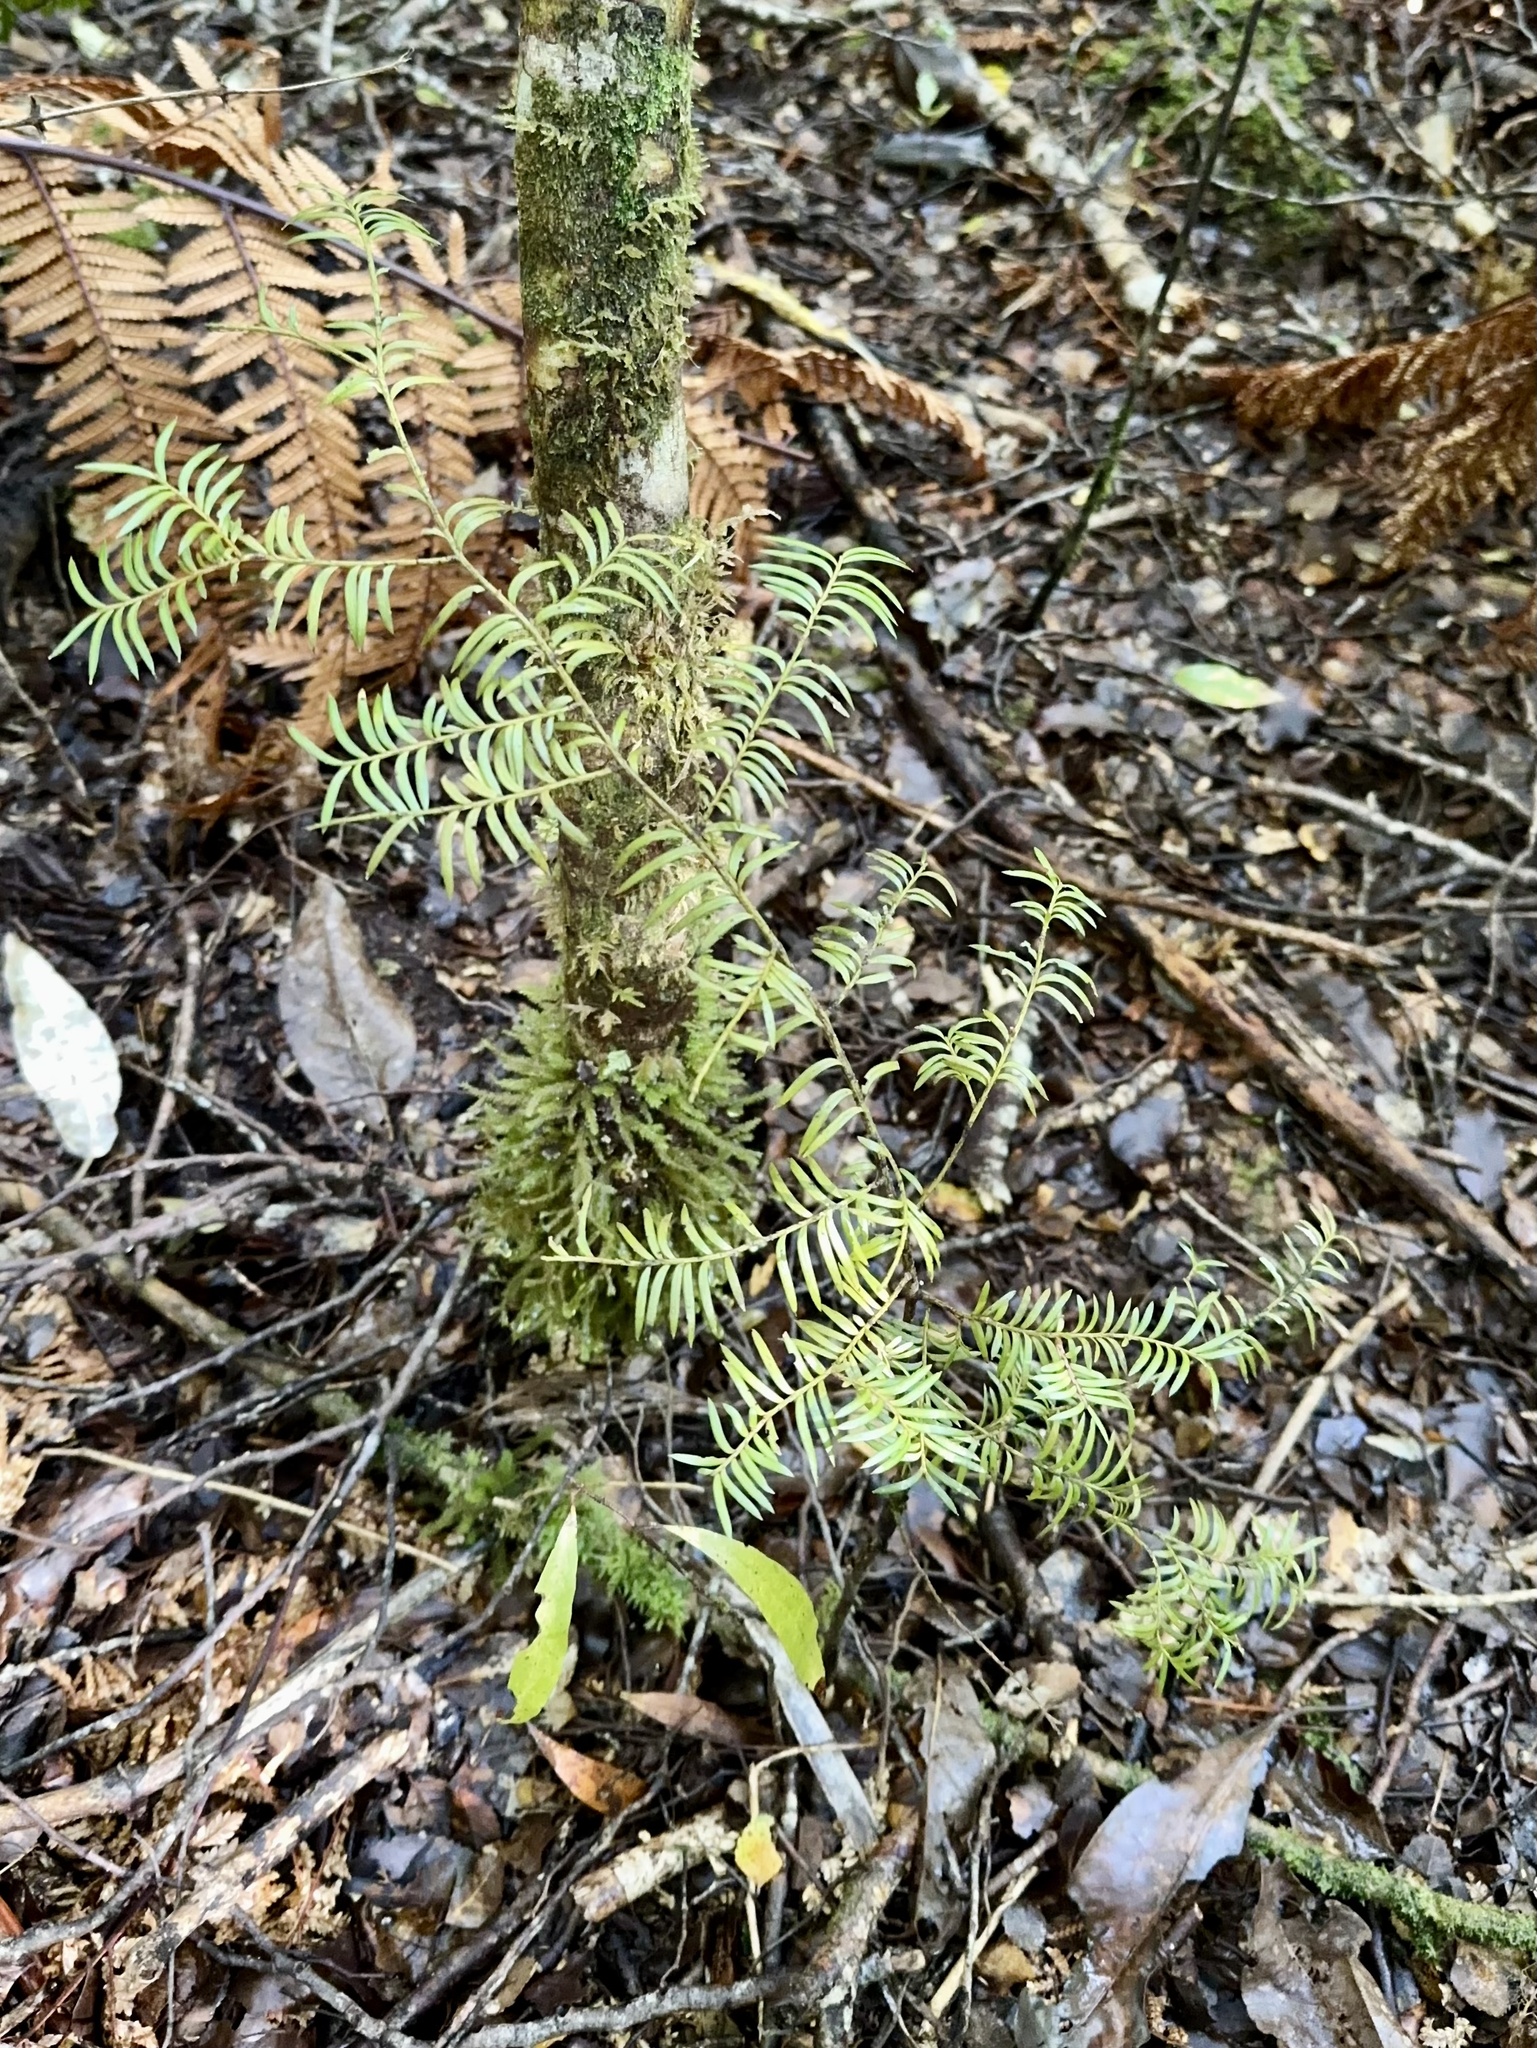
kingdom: Plantae
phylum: Tracheophyta
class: Pinopsida
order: Pinales
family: Podocarpaceae
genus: Prumnopitys
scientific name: Prumnopitys ferruginea
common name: Brown pine
